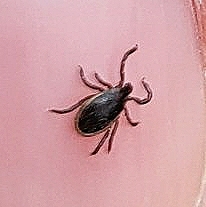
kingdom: Animalia
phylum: Arthropoda
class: Arachnida
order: Ixodida
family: Ixodidae
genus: Ixodes
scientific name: Ixodes scapularis
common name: Black legged tick
